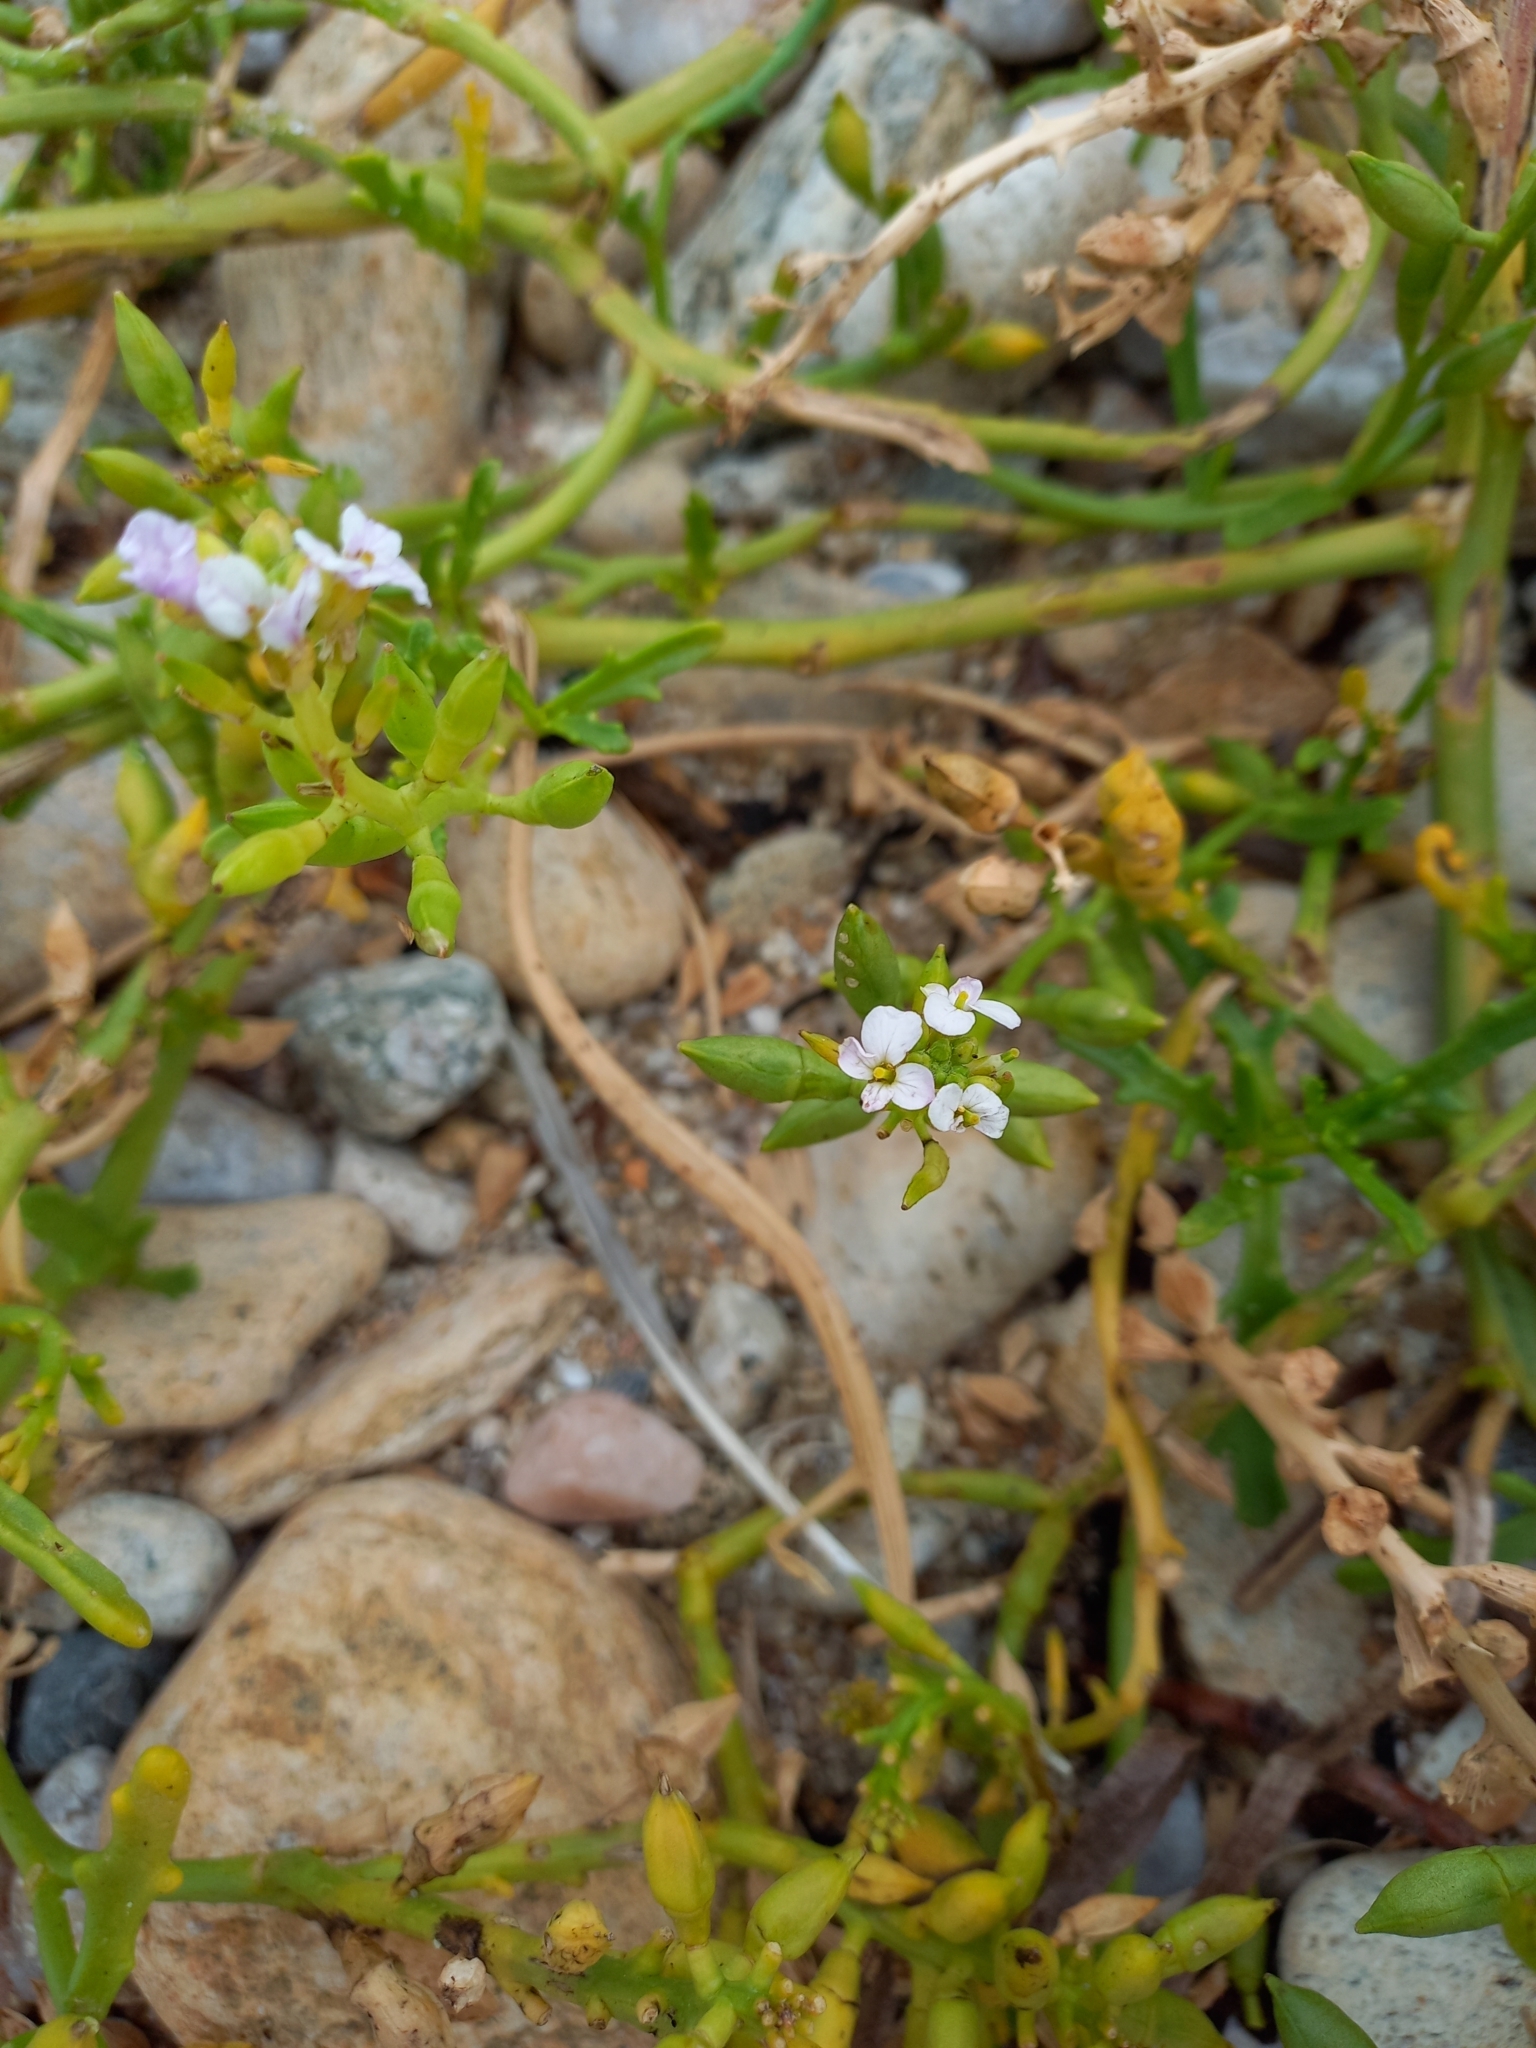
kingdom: Plantae
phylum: Tracheophyta
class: Magnoliopsida
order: Brassicales
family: Brassicaceae
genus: Cakile
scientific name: Cakile maritima
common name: Sea rocket
